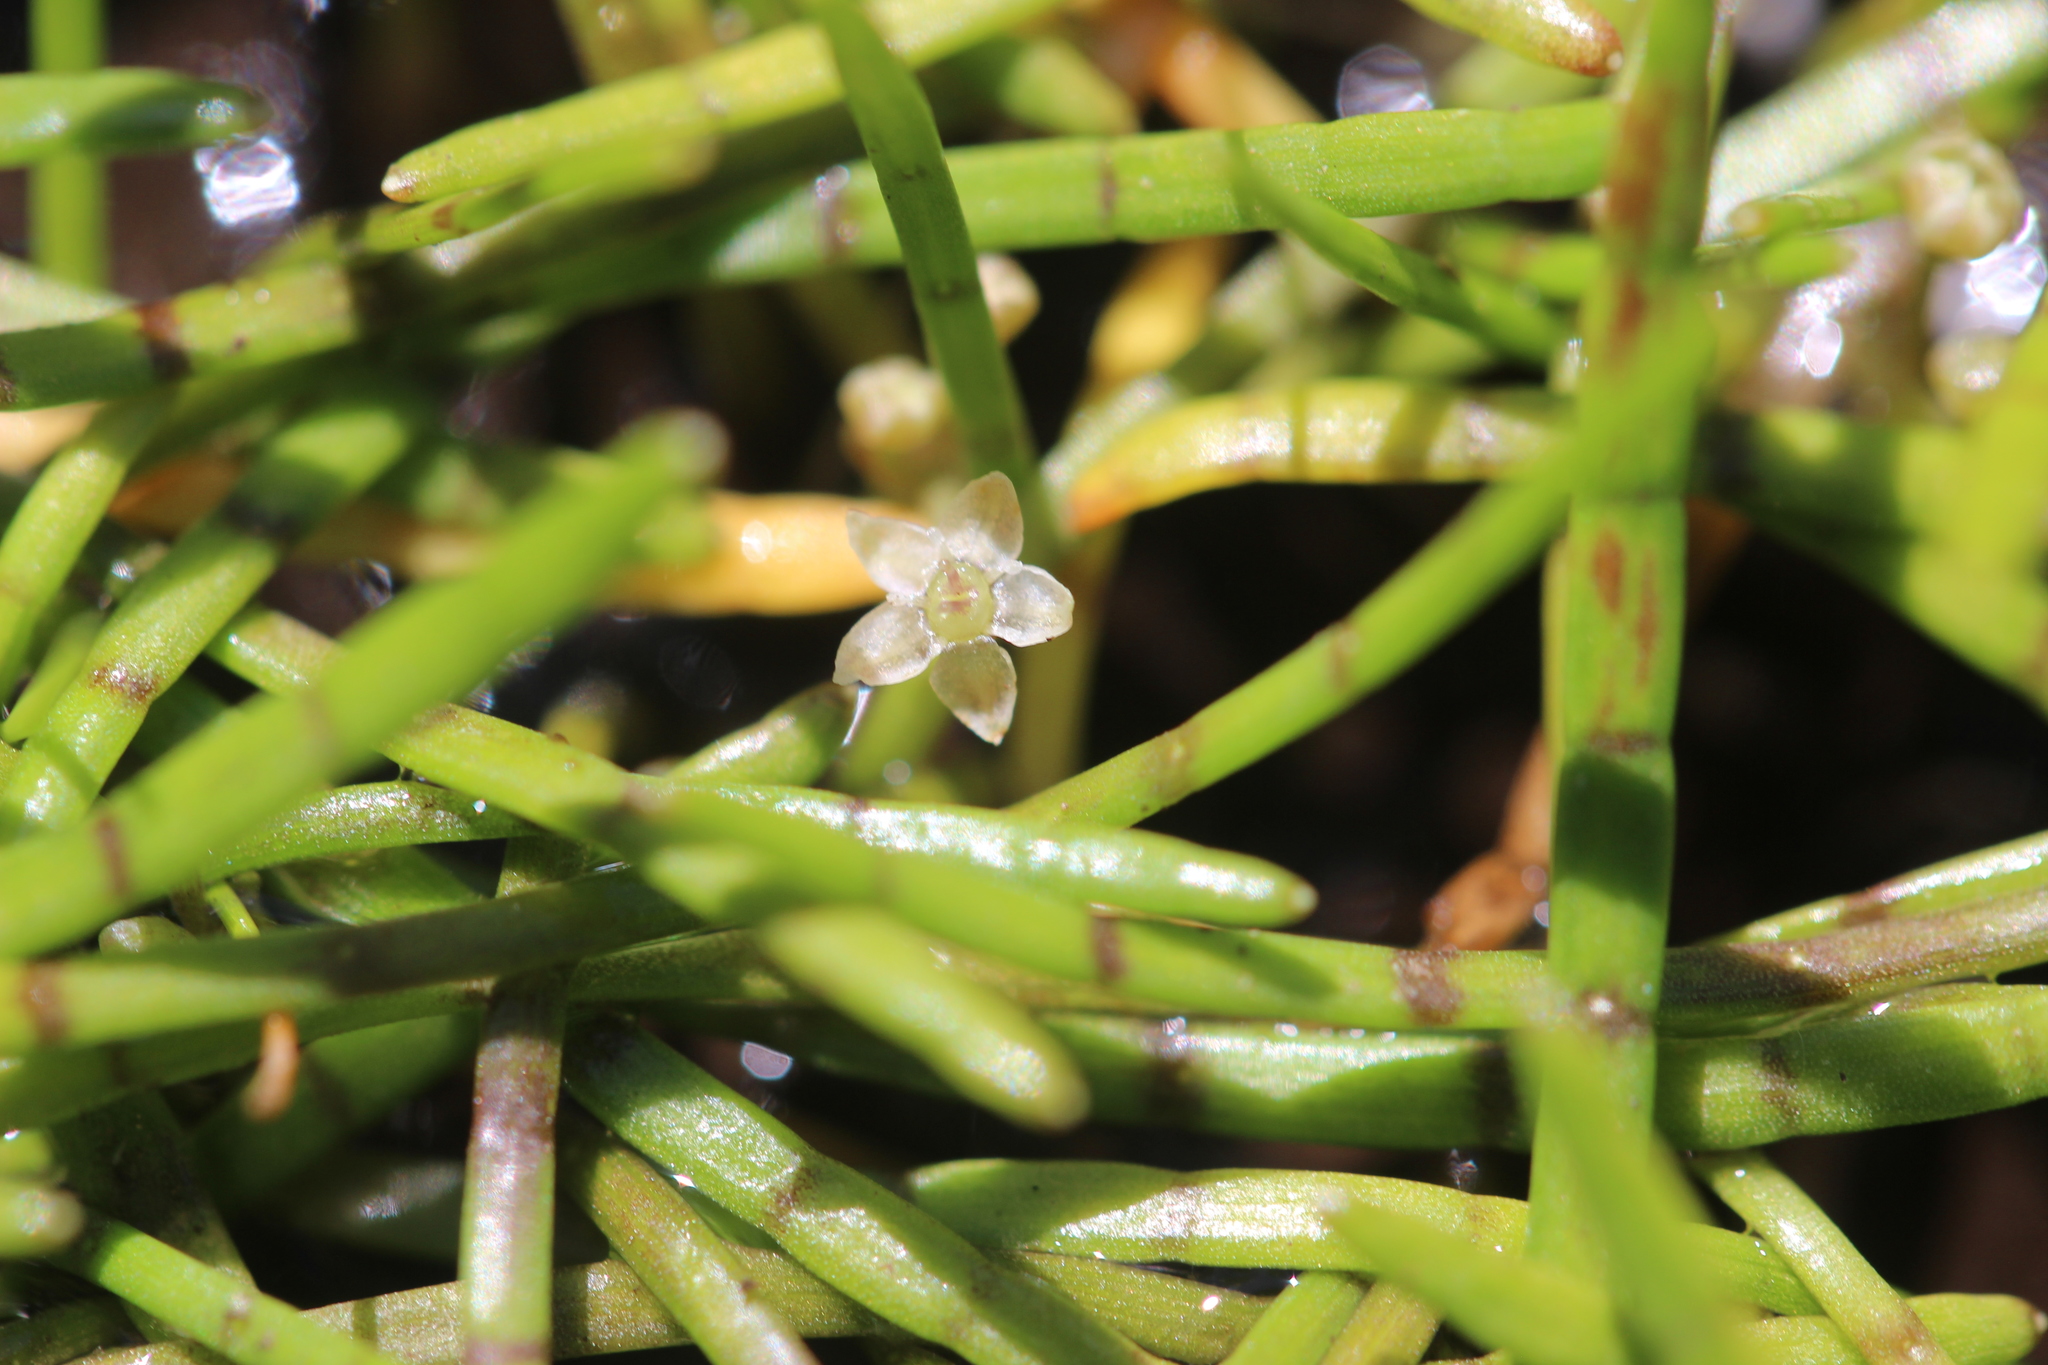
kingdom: Plantae
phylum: Tracheophyta
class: Magnoliopsida
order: Apiales
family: Apiaceae
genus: Lilaeopsis
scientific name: Lilaeopsis novae-zelandiae
